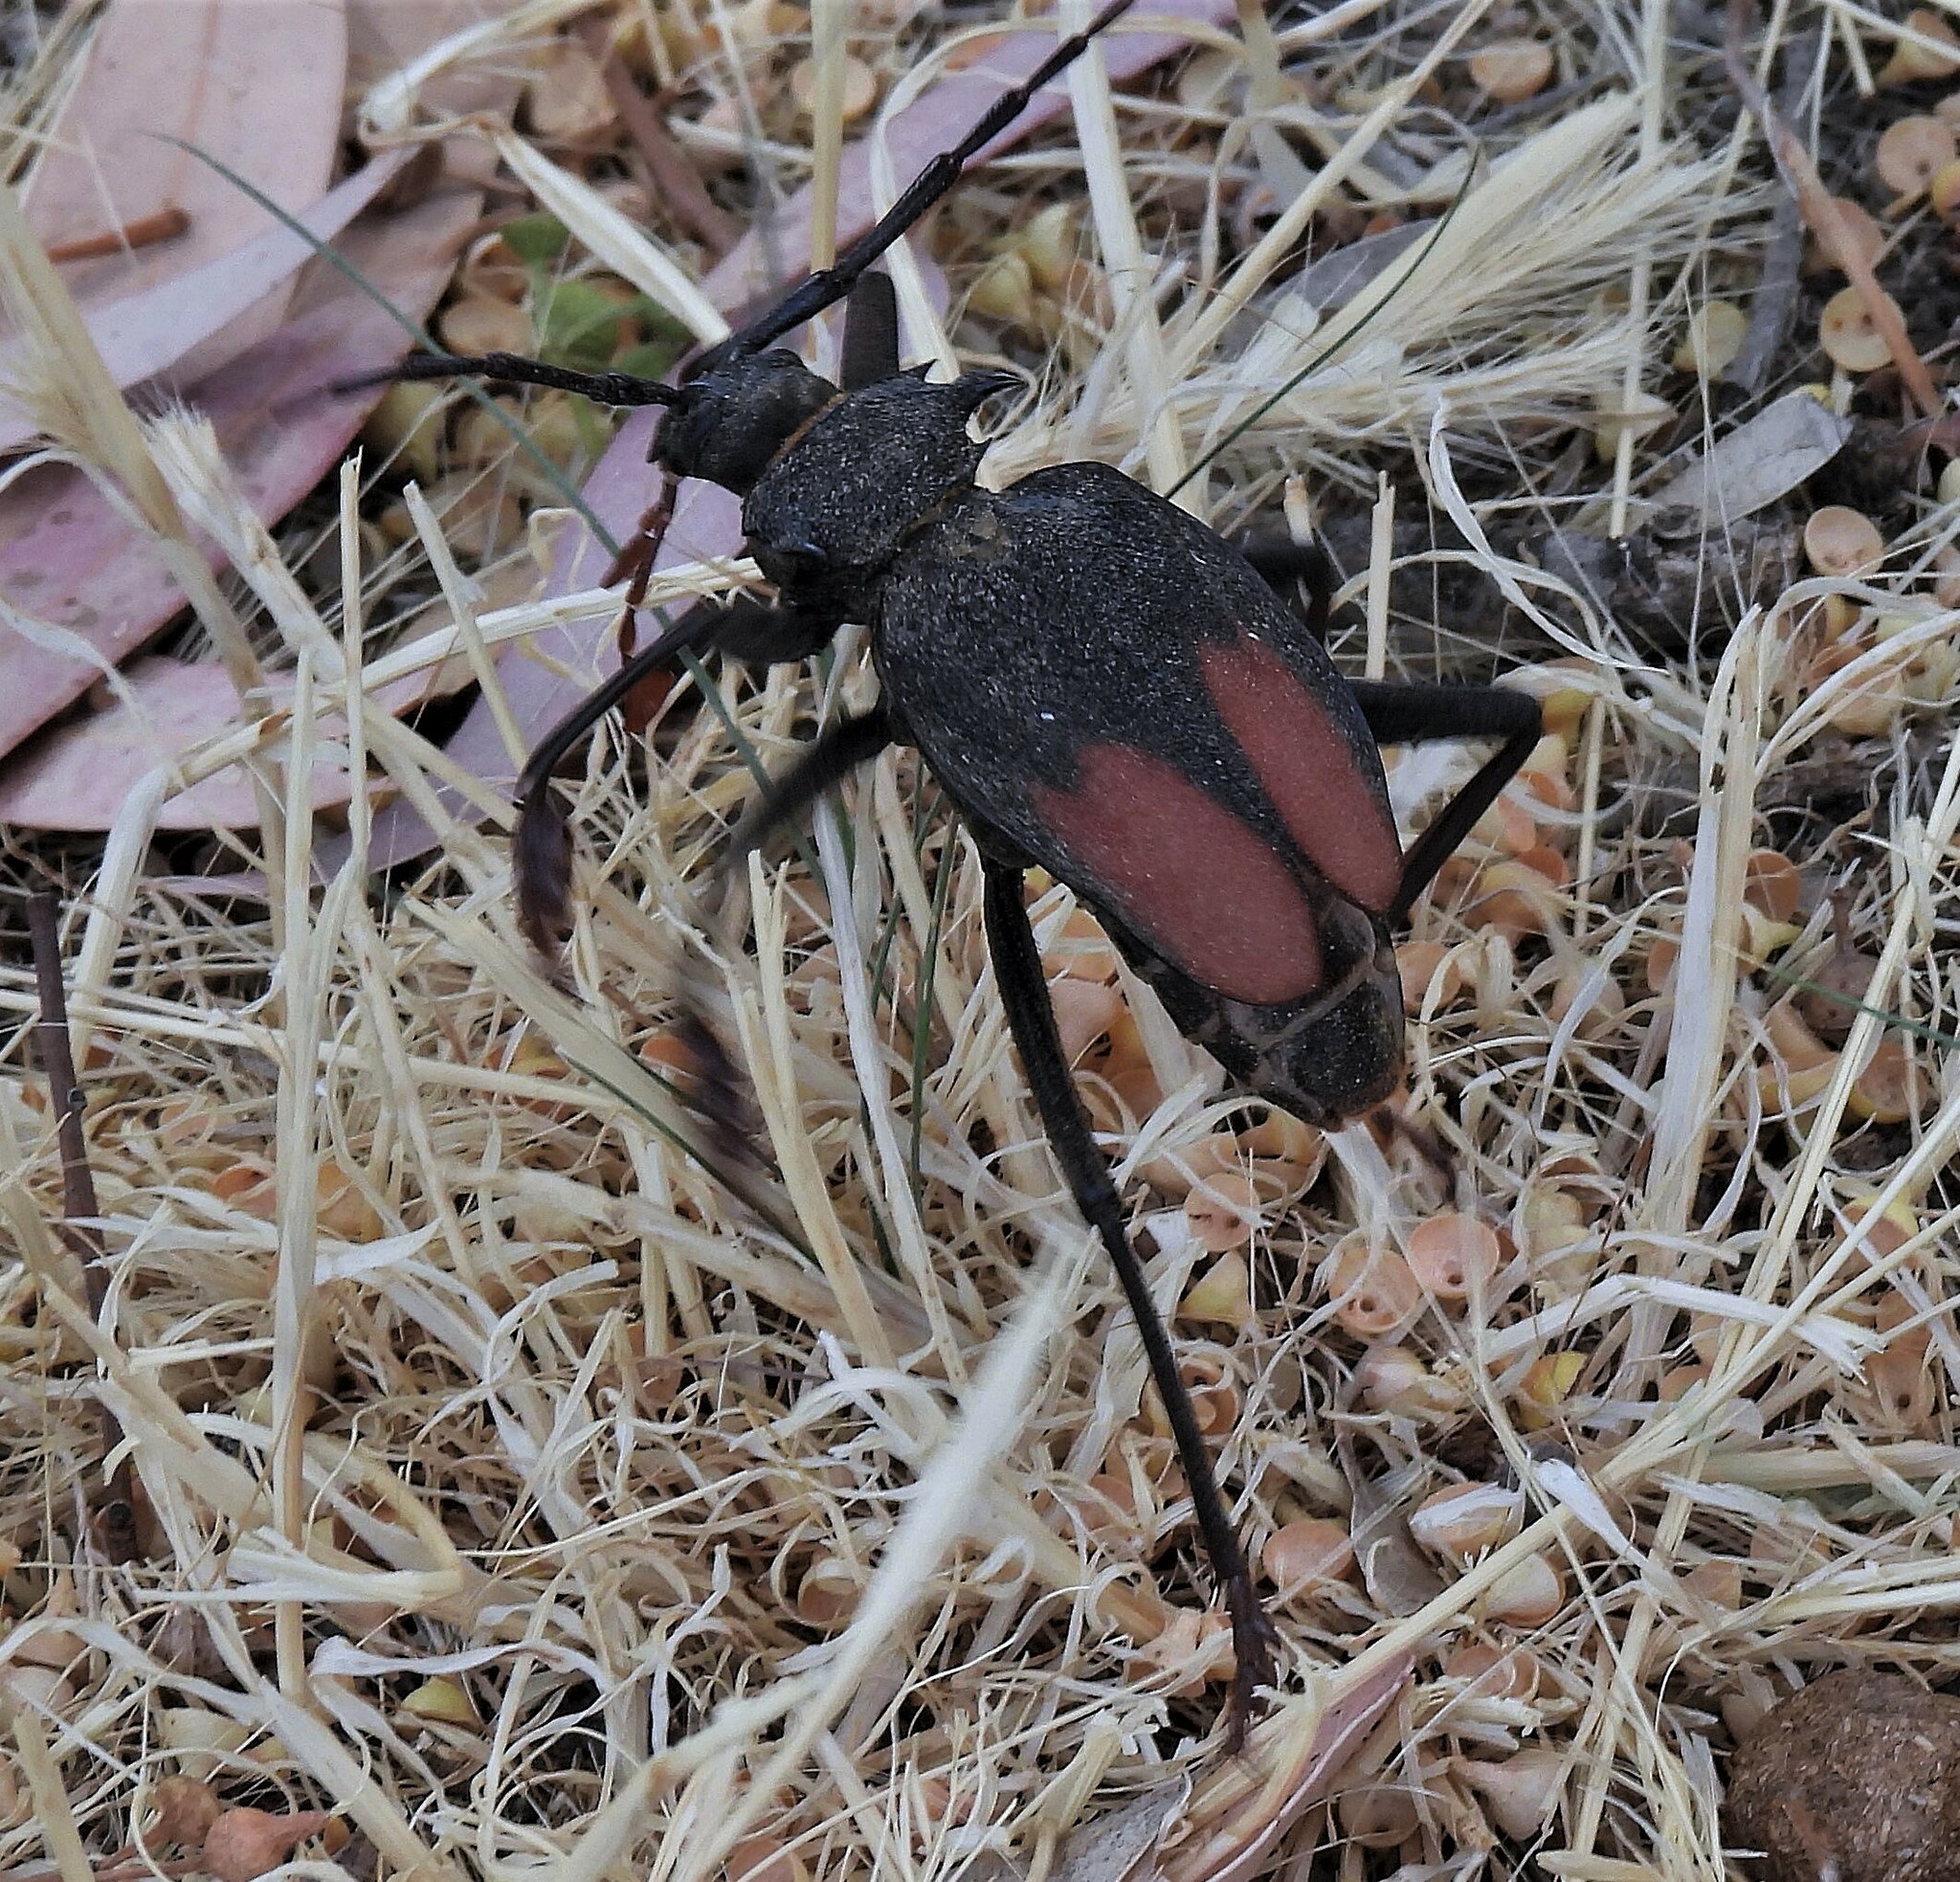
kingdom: Animalia
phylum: Arthropoda
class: Insecta
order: Coleoptera
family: Cerambycidae
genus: Apterocaulus
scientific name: Apterocaulus heterogama
